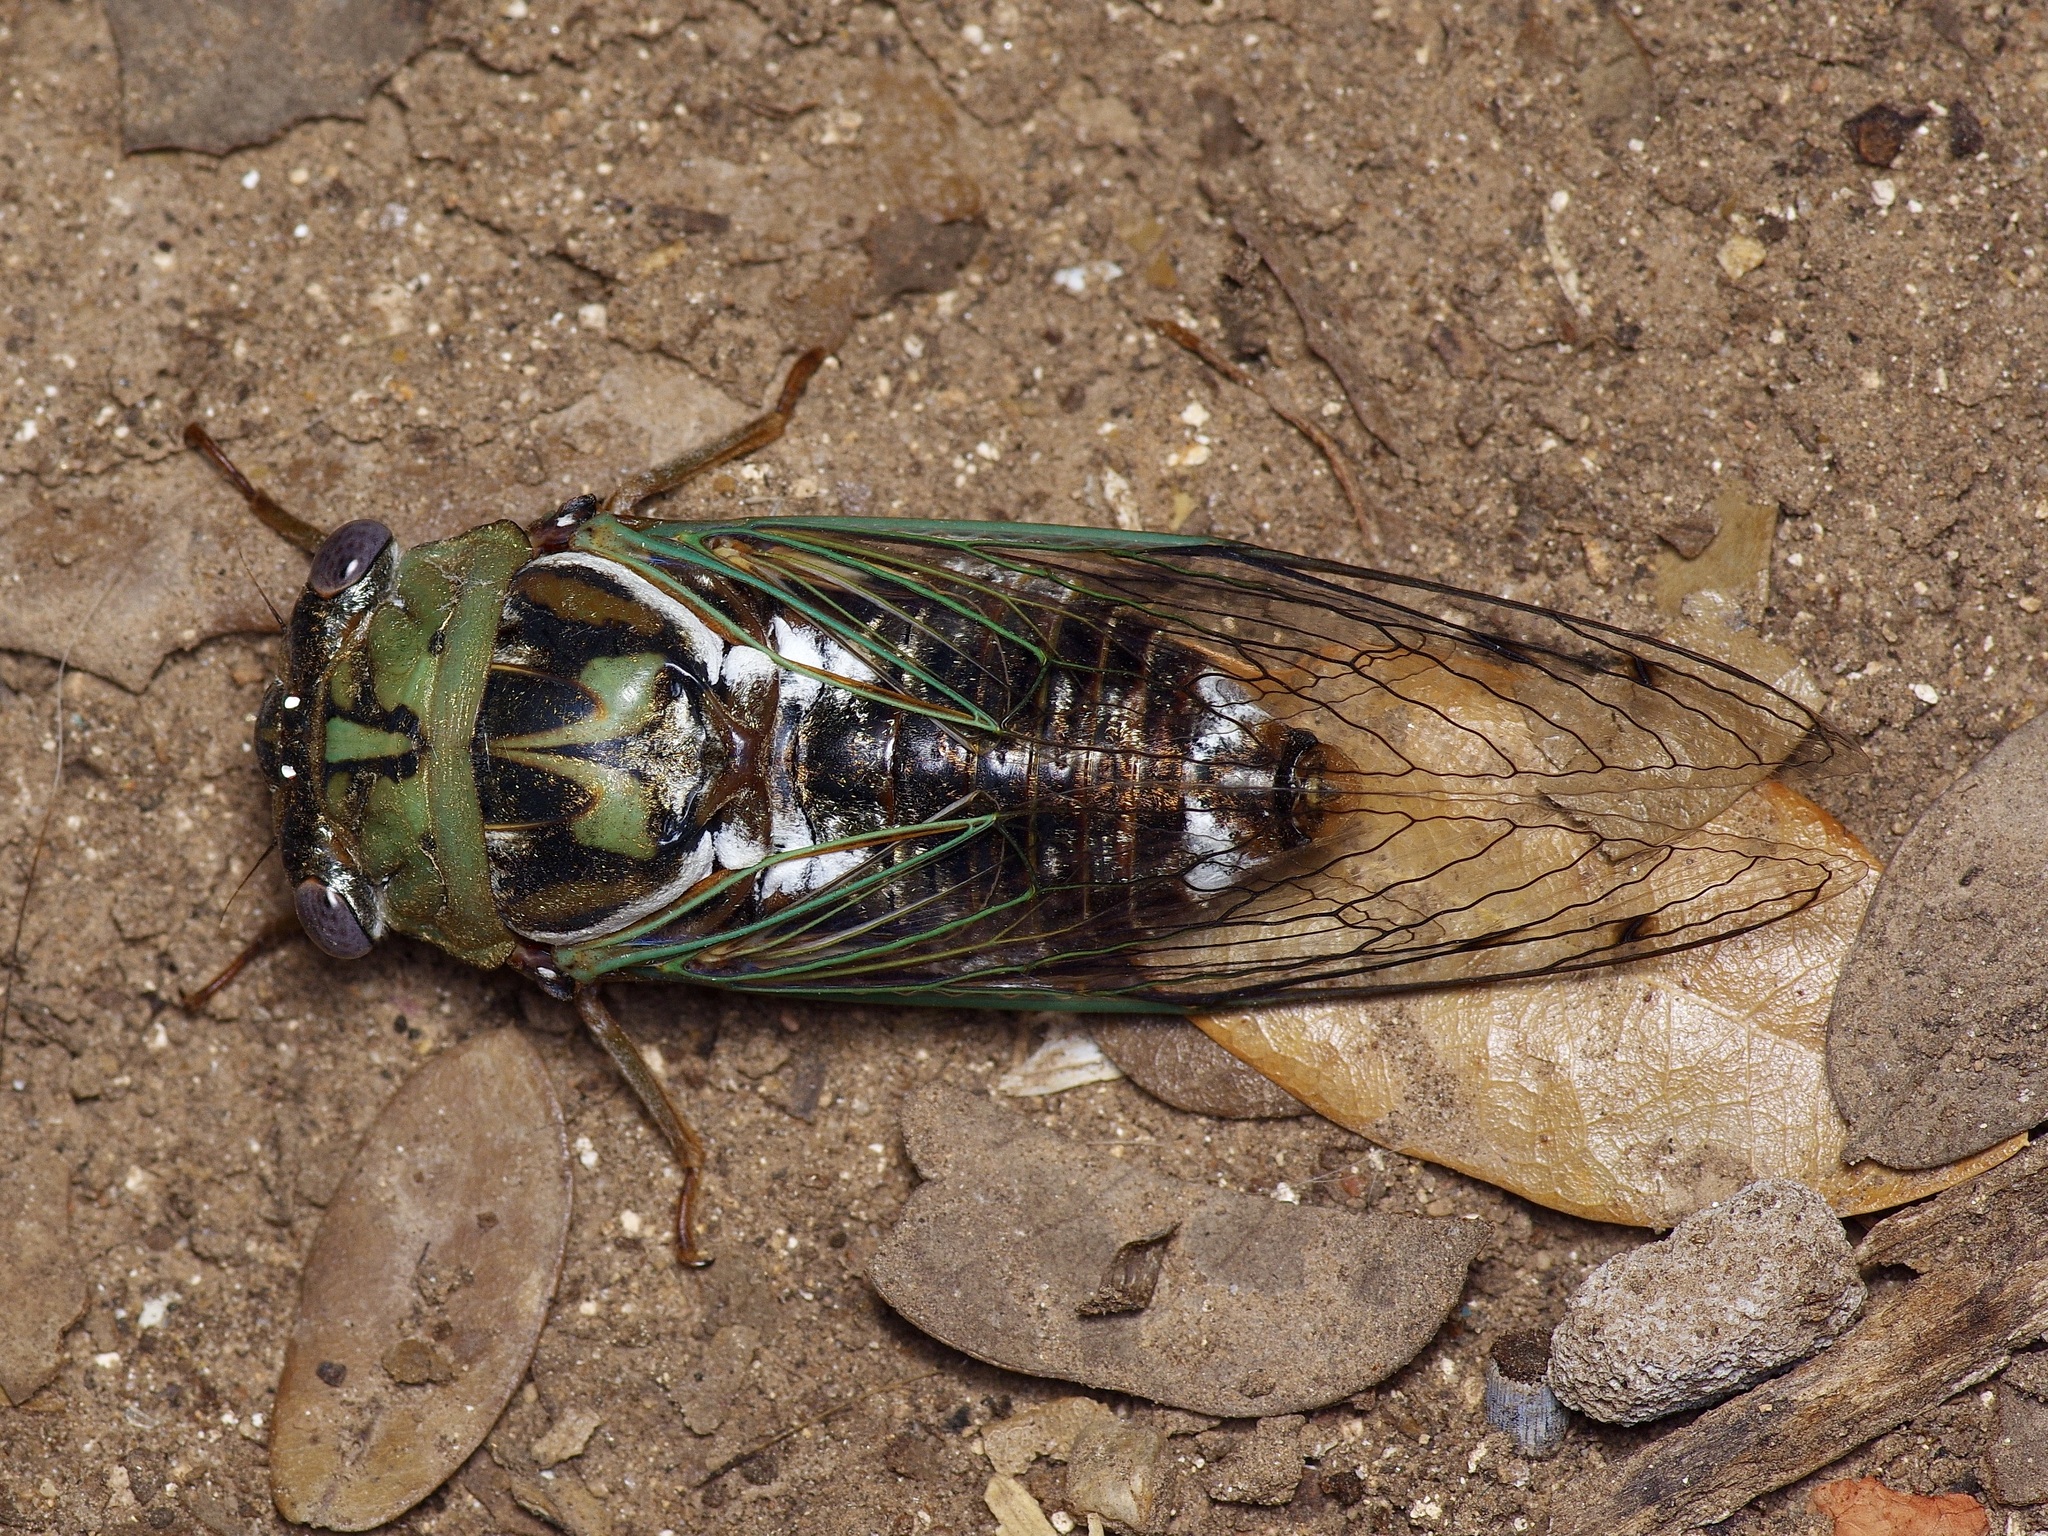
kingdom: Animalia
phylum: Arthropoda
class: Insecta
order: Hemiptera
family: Cicadidae
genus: Megatibicen
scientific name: Megatibicen resh
